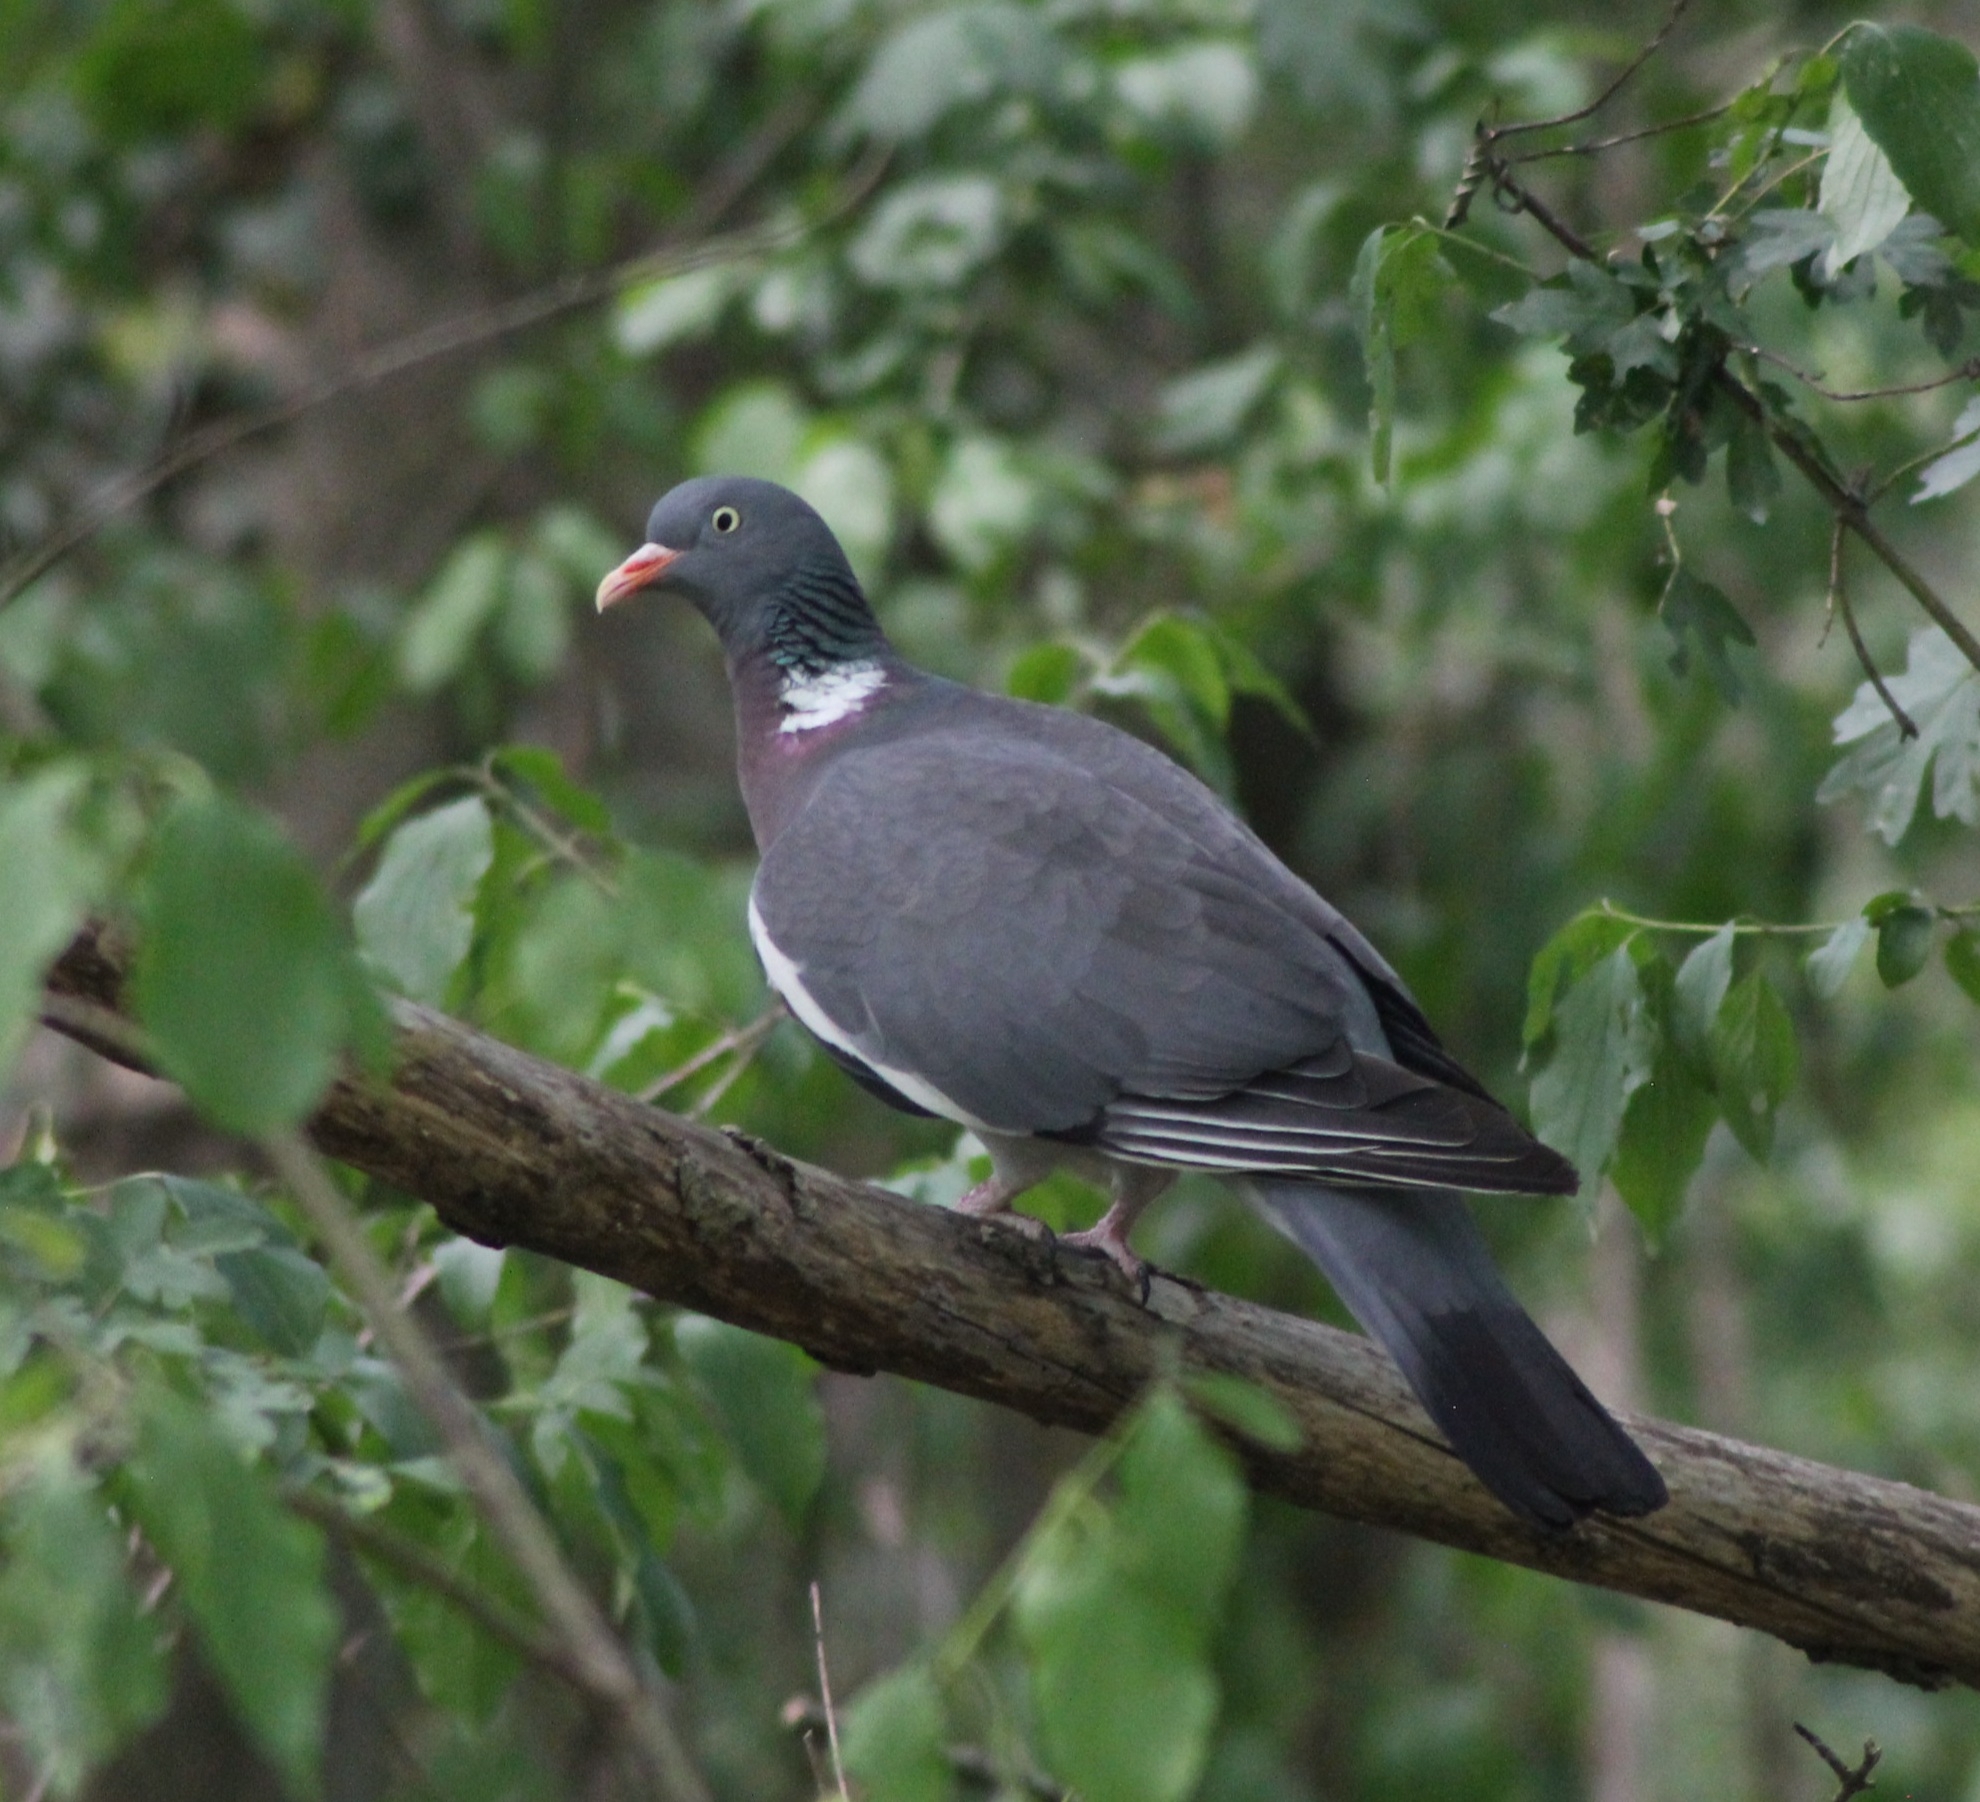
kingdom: Animalia
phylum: Chordata
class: Aves
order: Columbiformes
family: Columbidae
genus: Columba
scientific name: Columba palumbus
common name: Common wood pigeon
